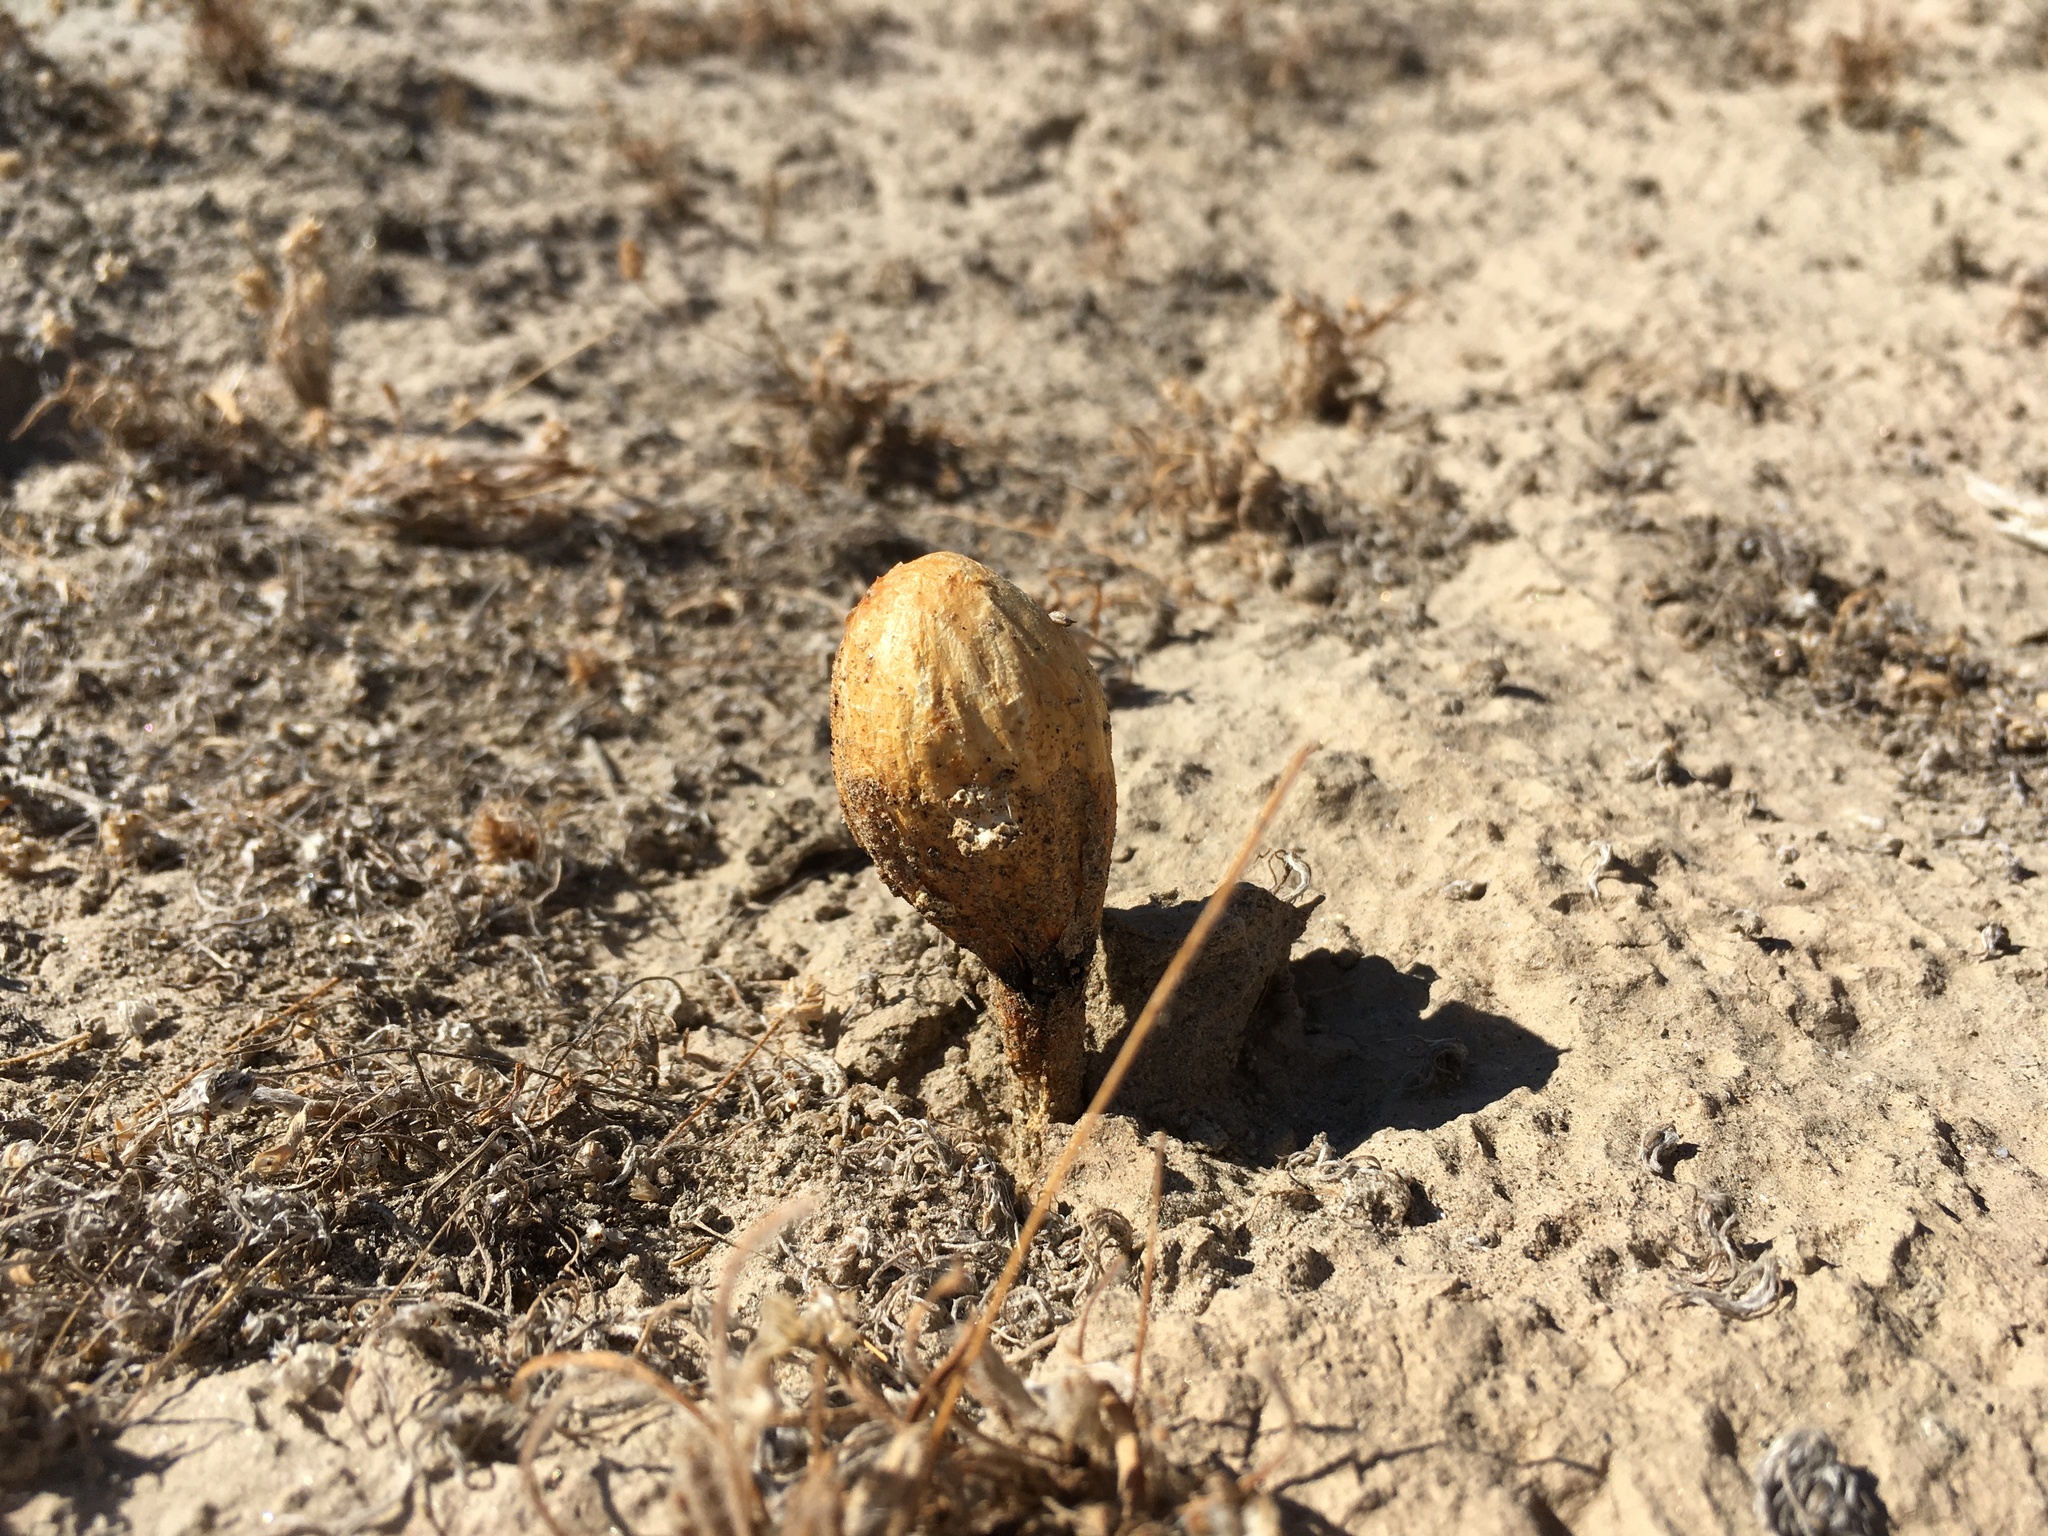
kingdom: Fungi
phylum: Basidiomycota
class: Agaricomycetes
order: Agaricales
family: Agaricaceae
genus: Podaxis
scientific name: Podaxis pistillaris
